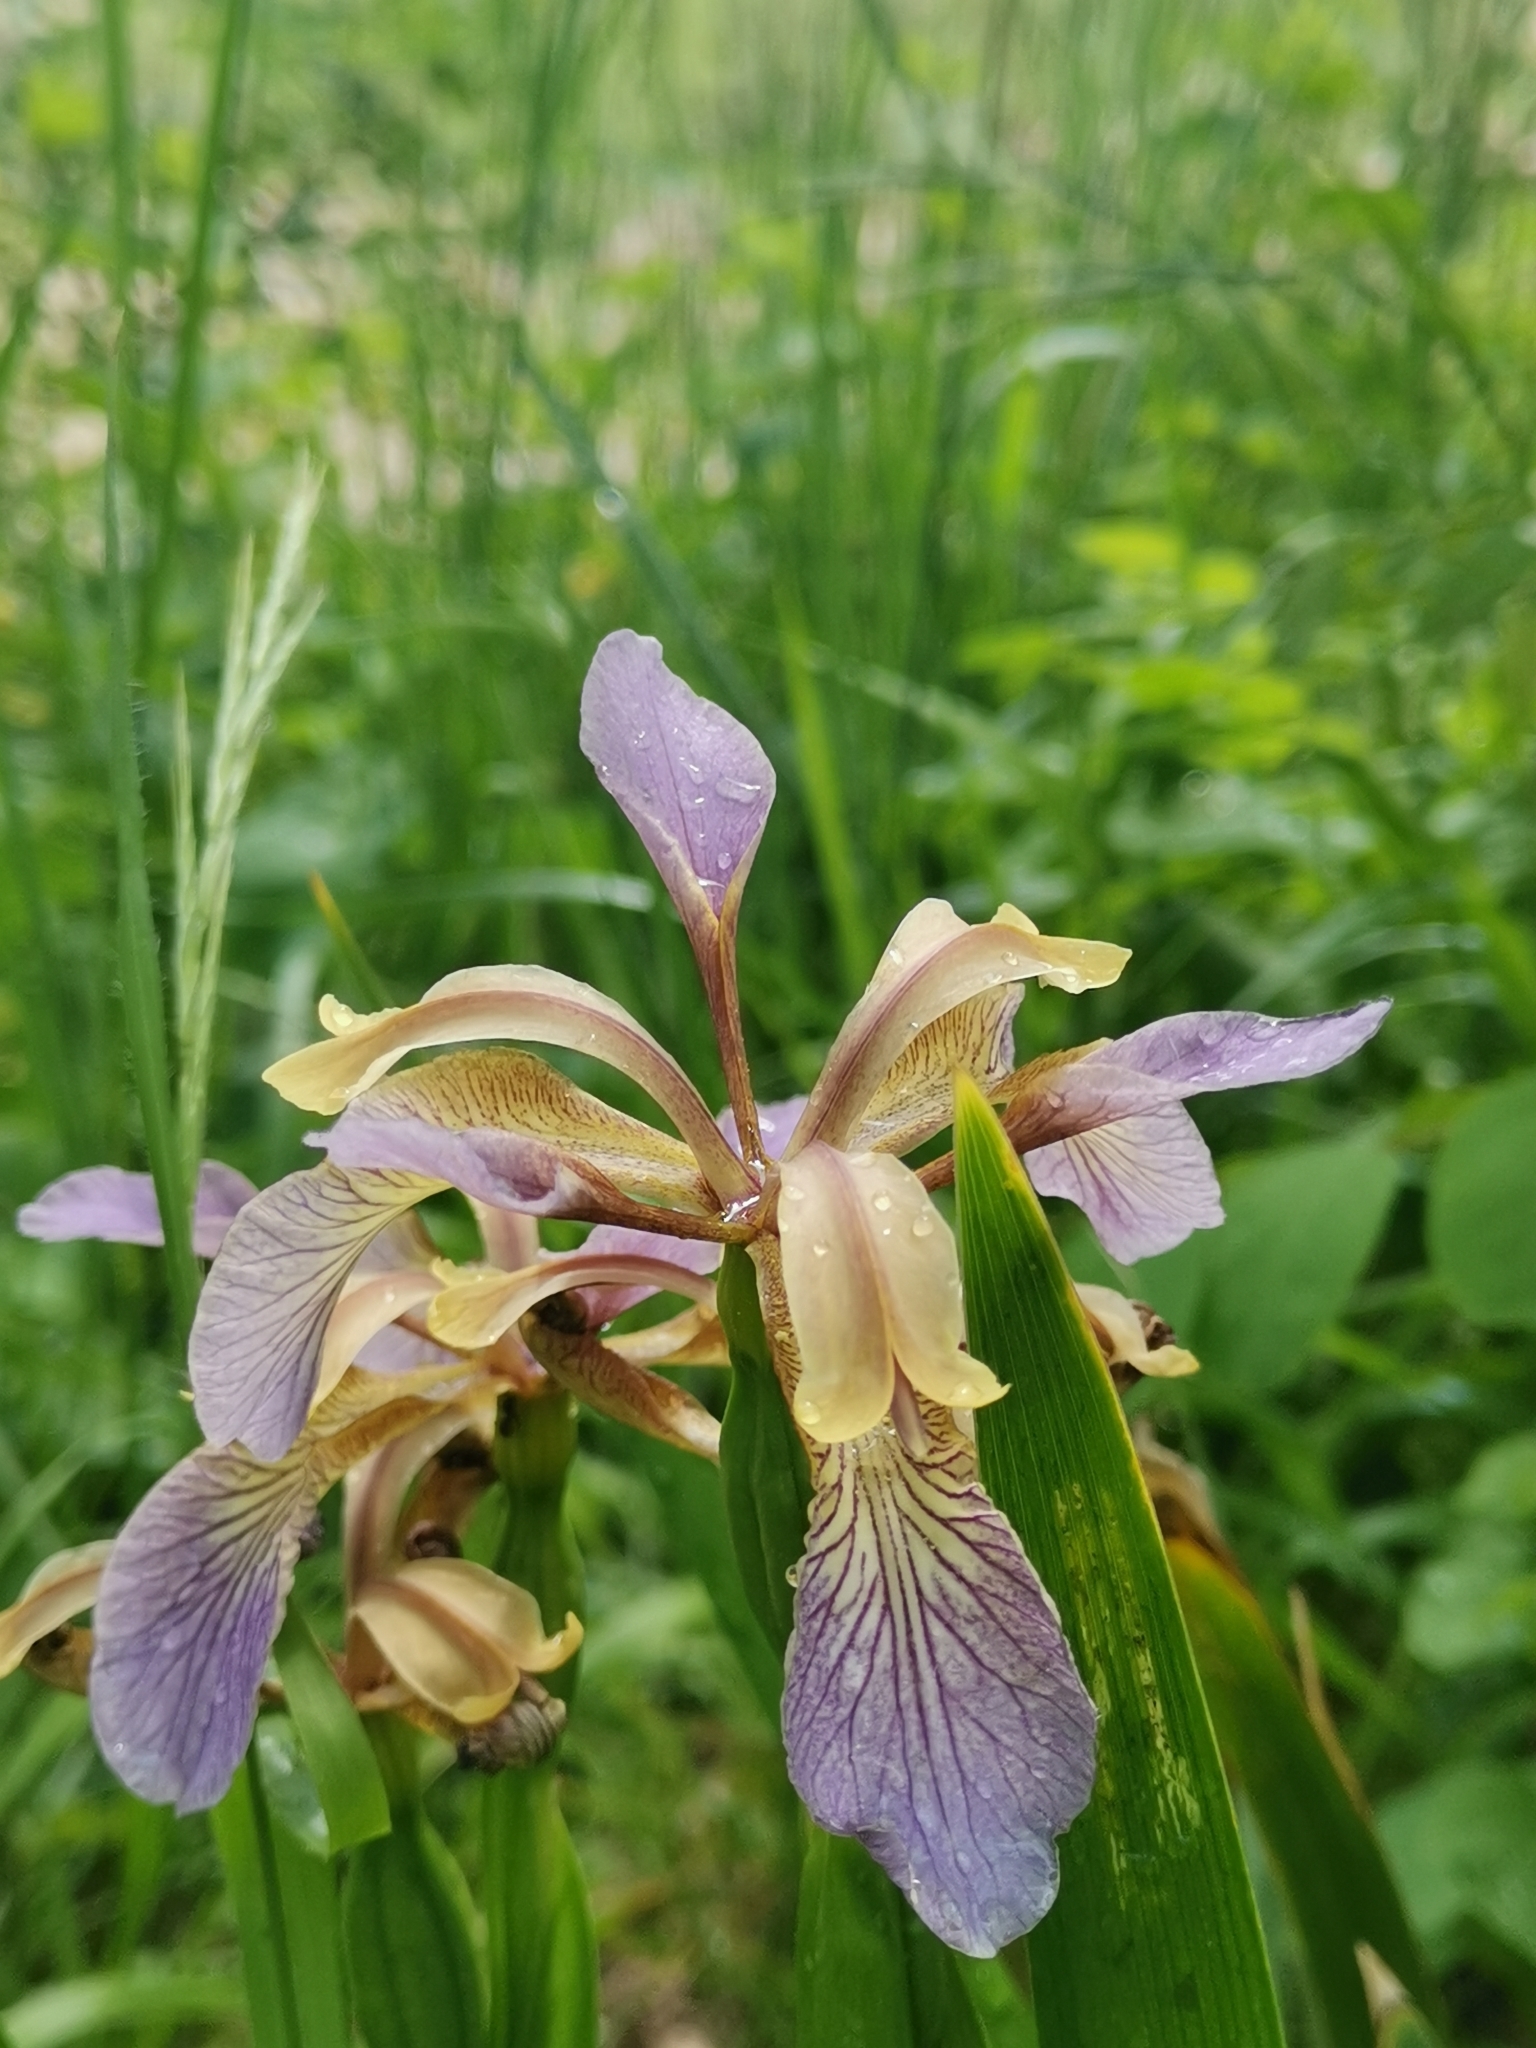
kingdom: Plantae
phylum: Tracheophyta
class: Liliopsida
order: Asparagales
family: Iridaceae
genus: Iris
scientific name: Iris foetidissima
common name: Stinking iris
